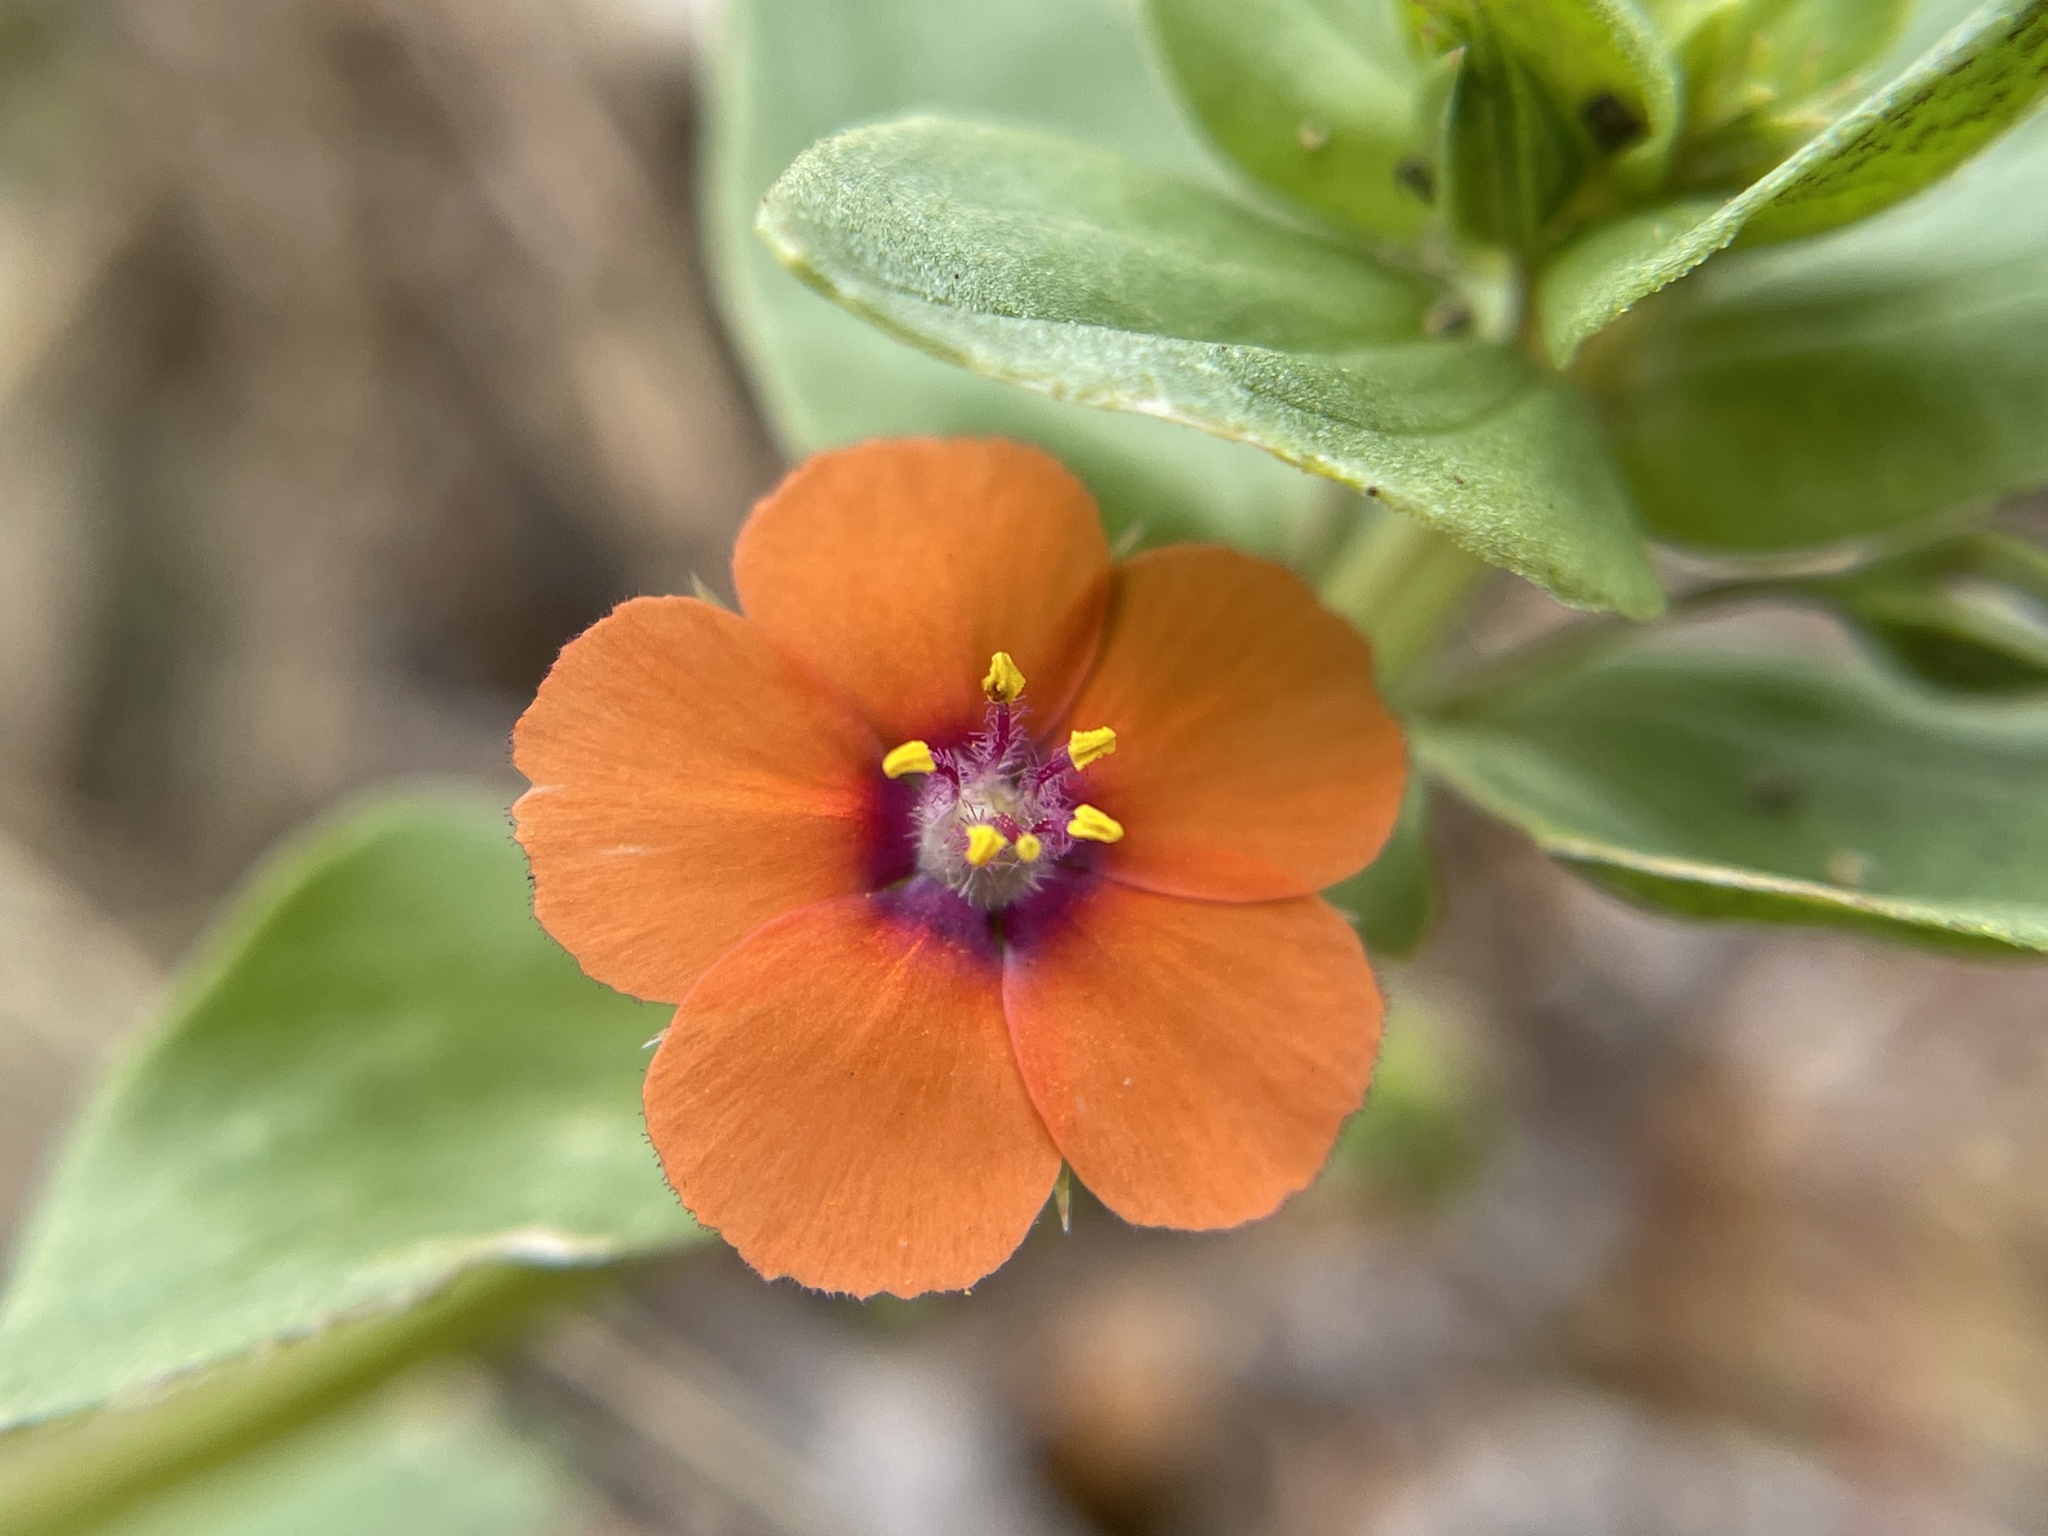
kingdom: Plantae
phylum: Tracheophyta
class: Magnoliopsida
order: Ericales
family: Primulaceae
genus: Lysimachia
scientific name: Lysimachia arvensis
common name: Scarlet pimpernel
